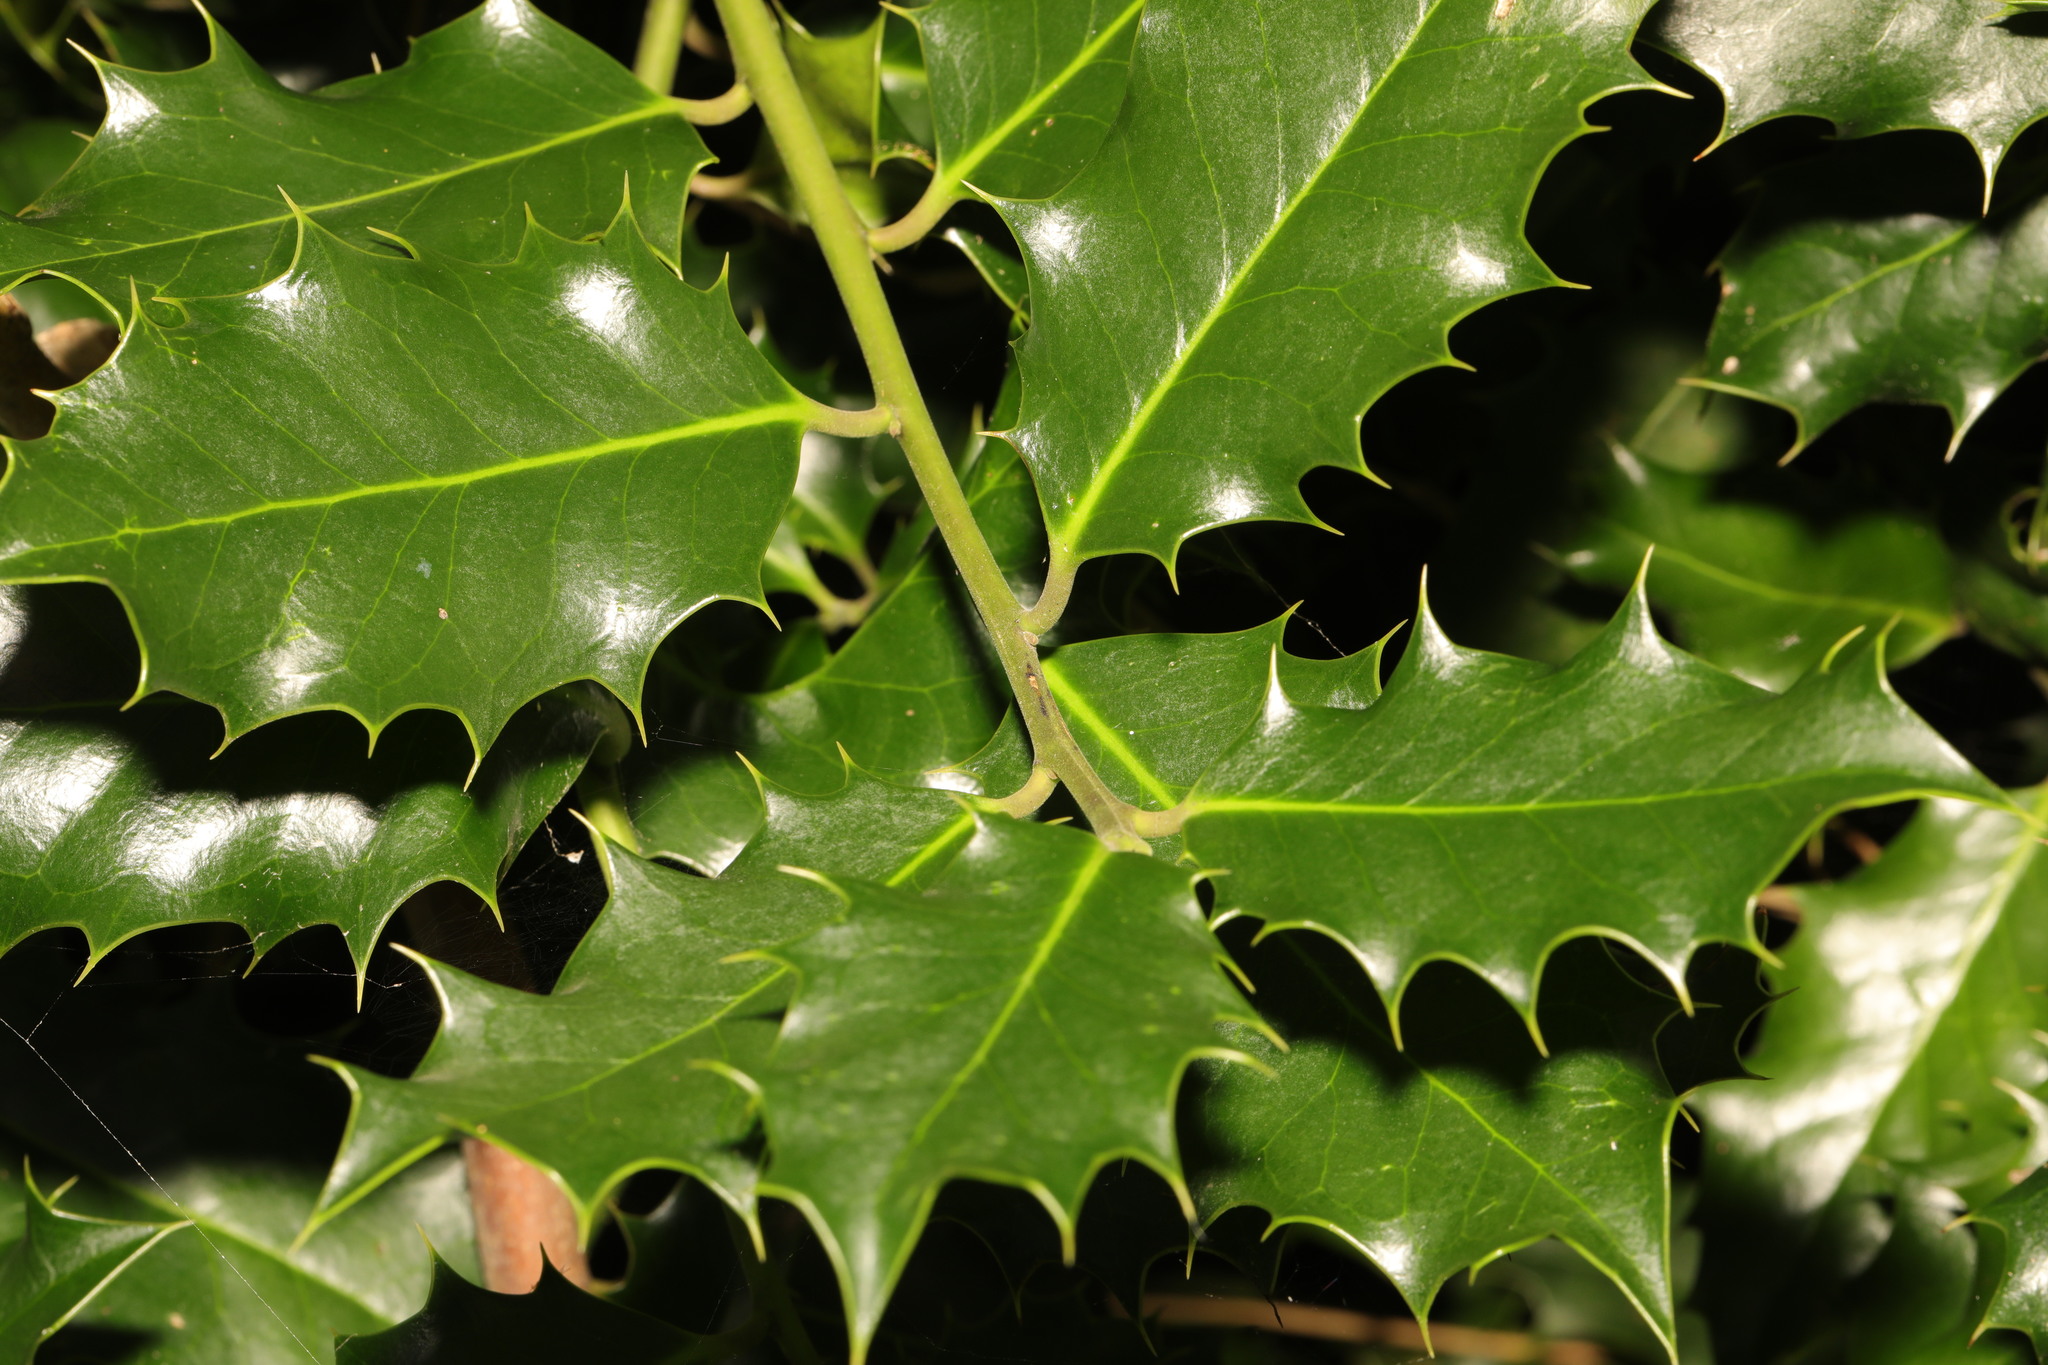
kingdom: Plantae
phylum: Tracheophyta
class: Magnoliopsida
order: Aquifoliales
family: Aquifoliaceae
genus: Ilex
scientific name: Ilex aquifolium
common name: English holly
